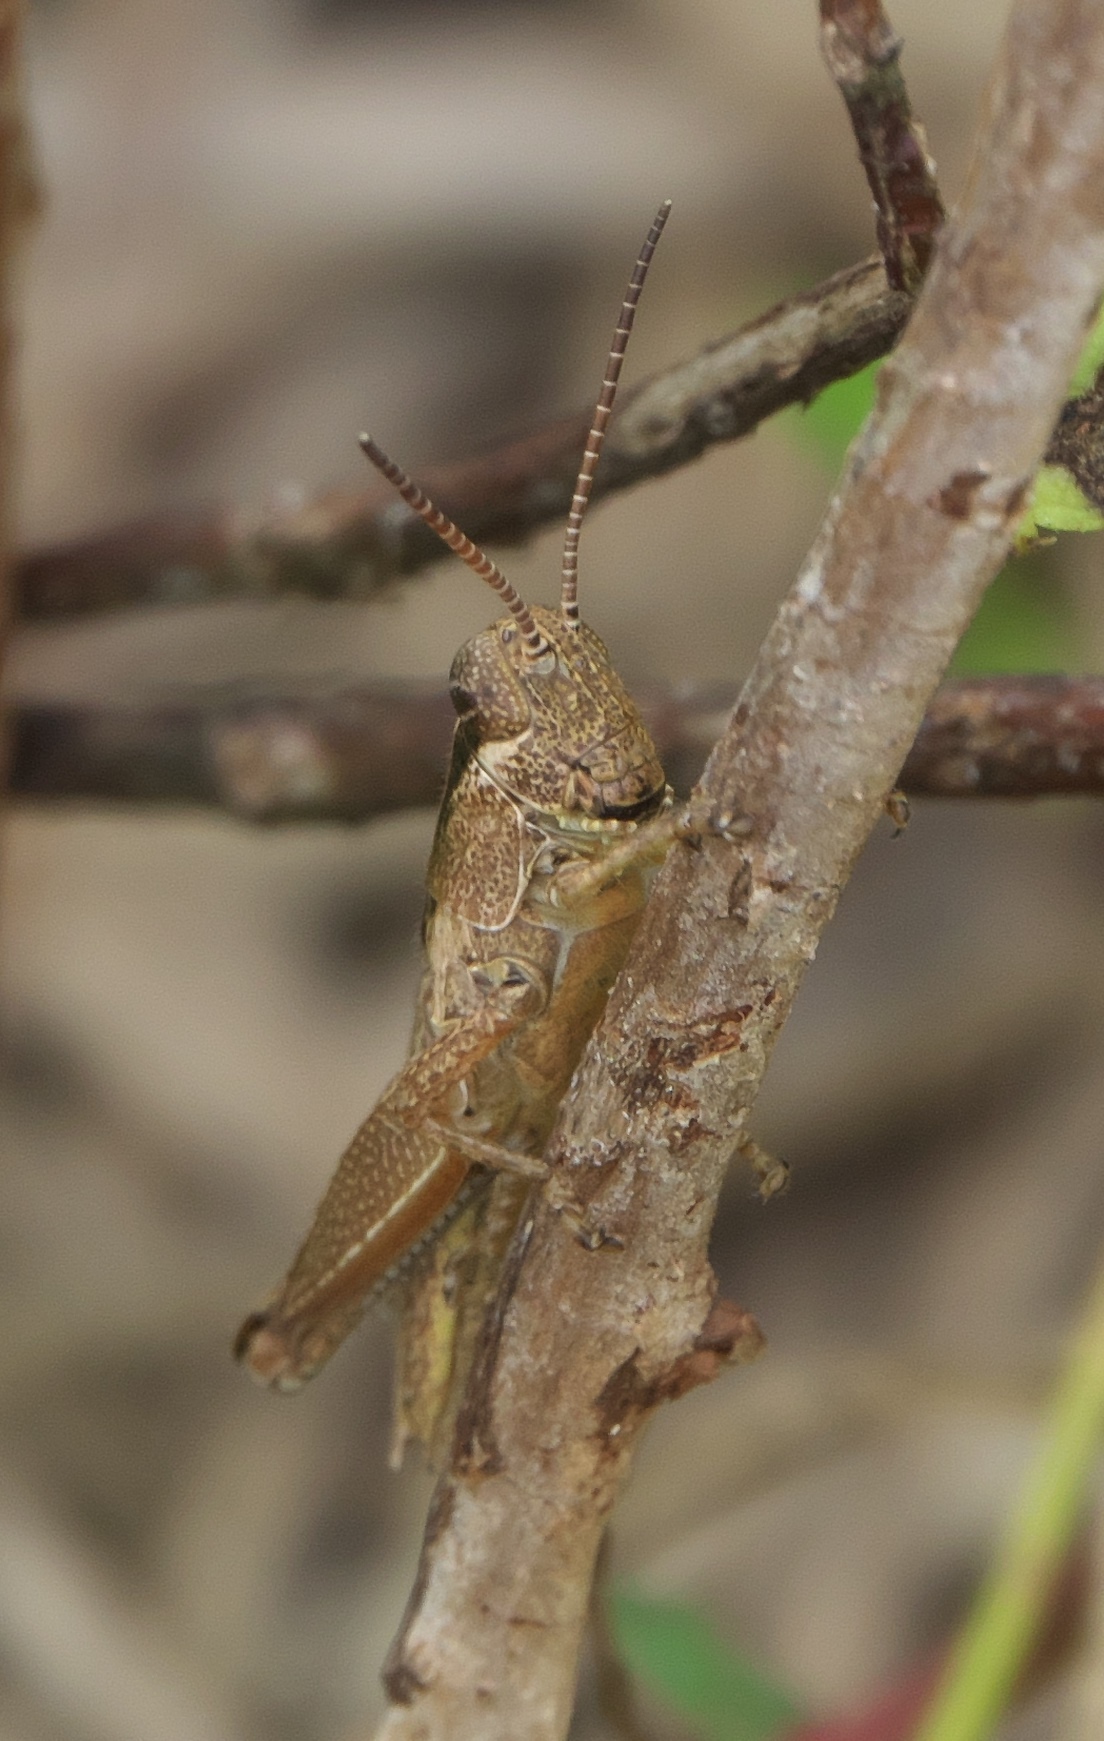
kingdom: Animalia
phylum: Arthropoda
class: Insecta
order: Orthoptera
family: Acrididae
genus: Paroxya
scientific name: Paroxya clavuligera
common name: Olive-green swamp grasshopper
